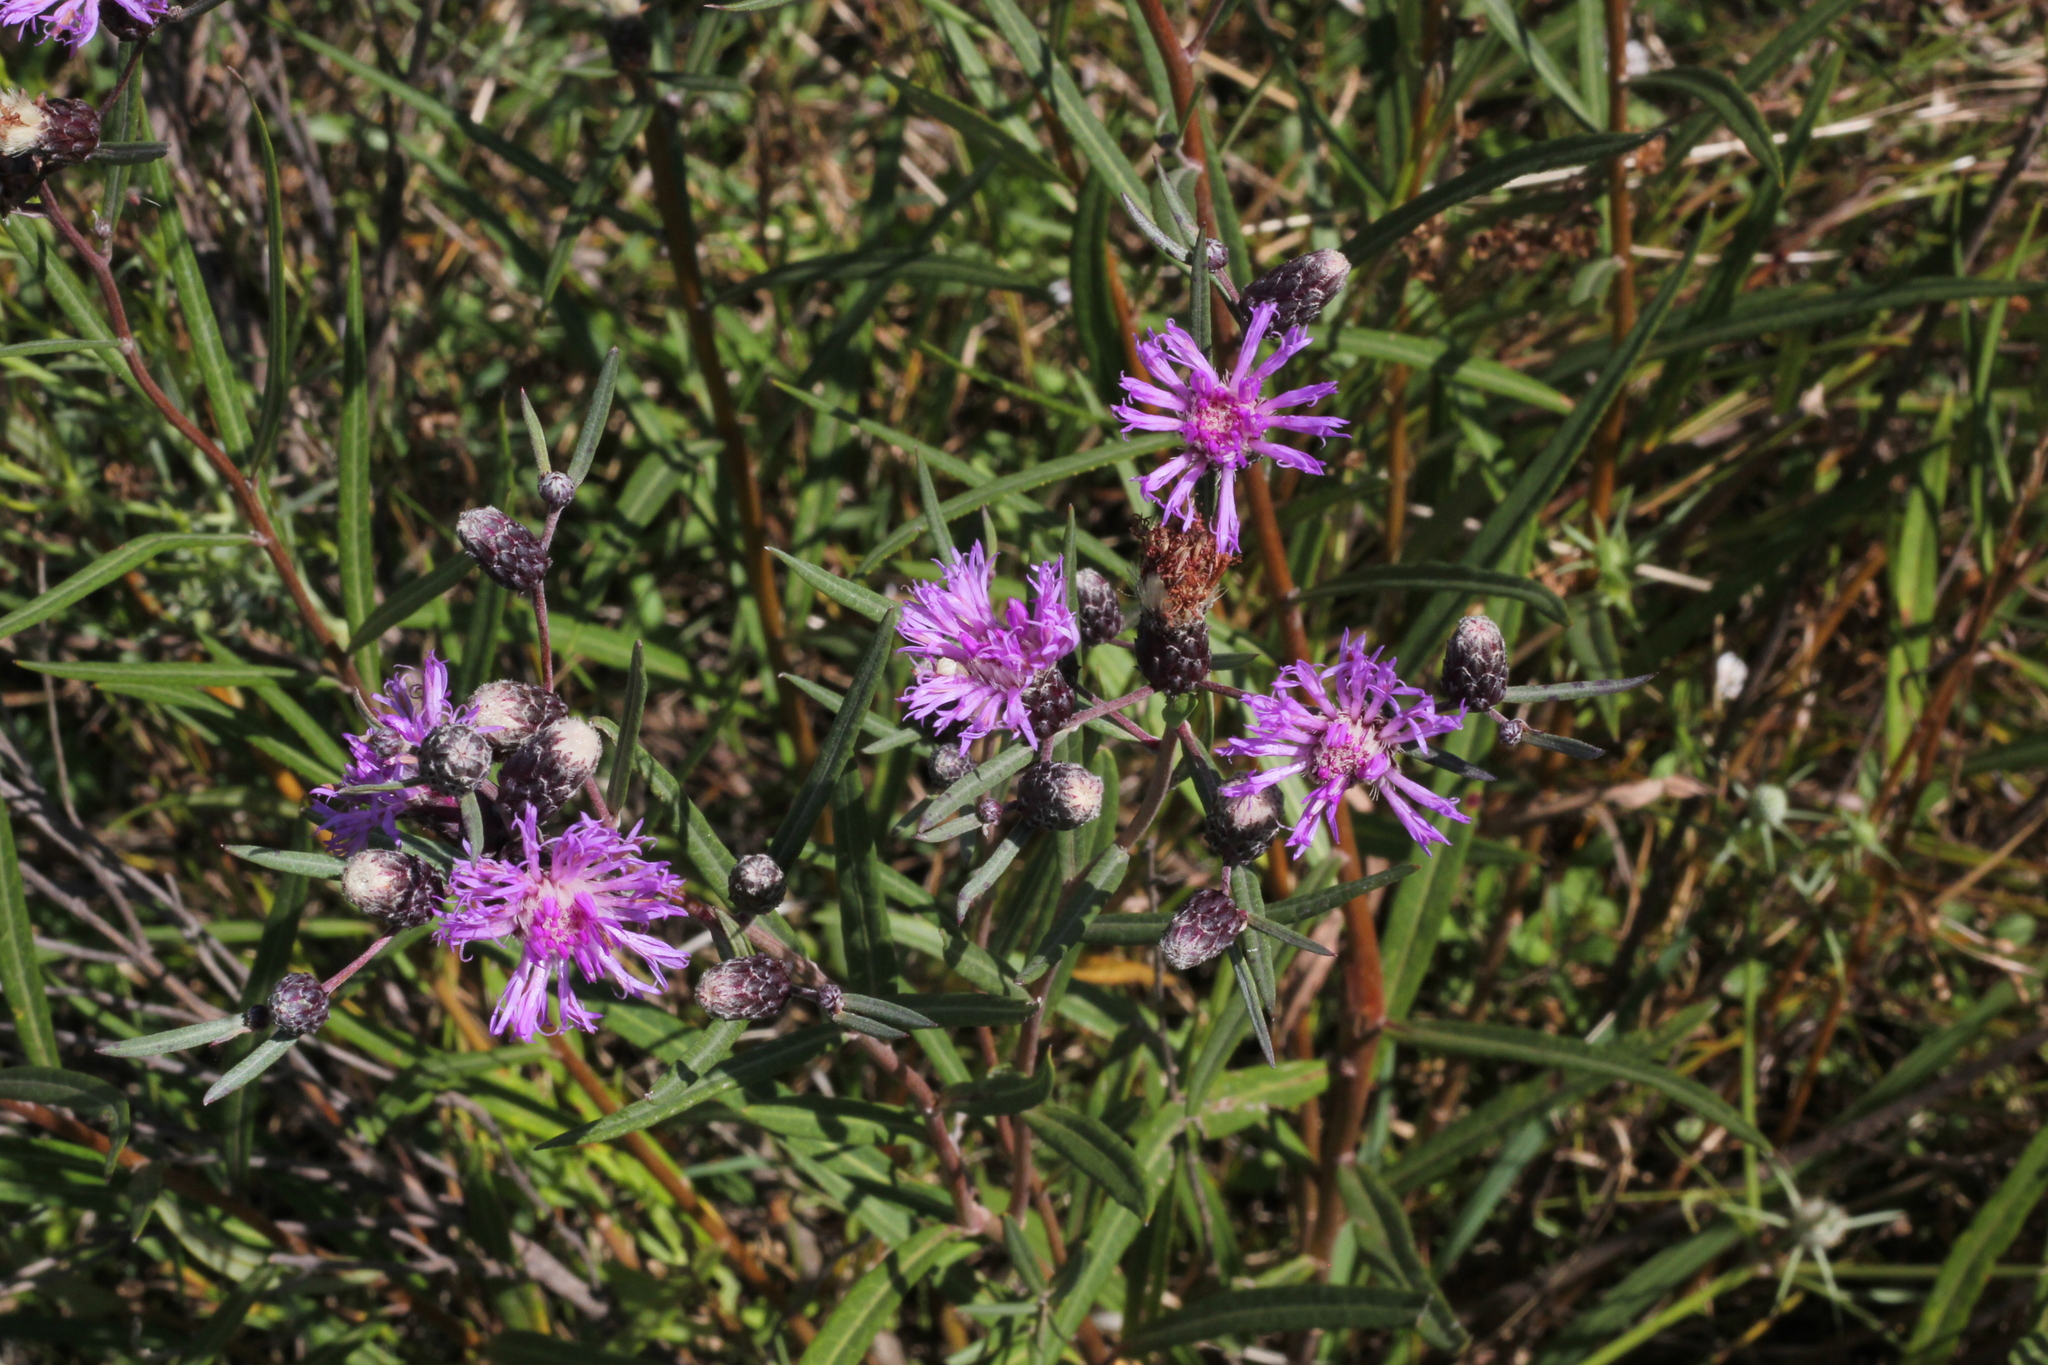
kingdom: Plantae
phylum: Tracheophyta
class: Magnoliopsida
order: Asterales
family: Asteraceae
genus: Lessingianthus
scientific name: Lessingianthus rubricaulis
